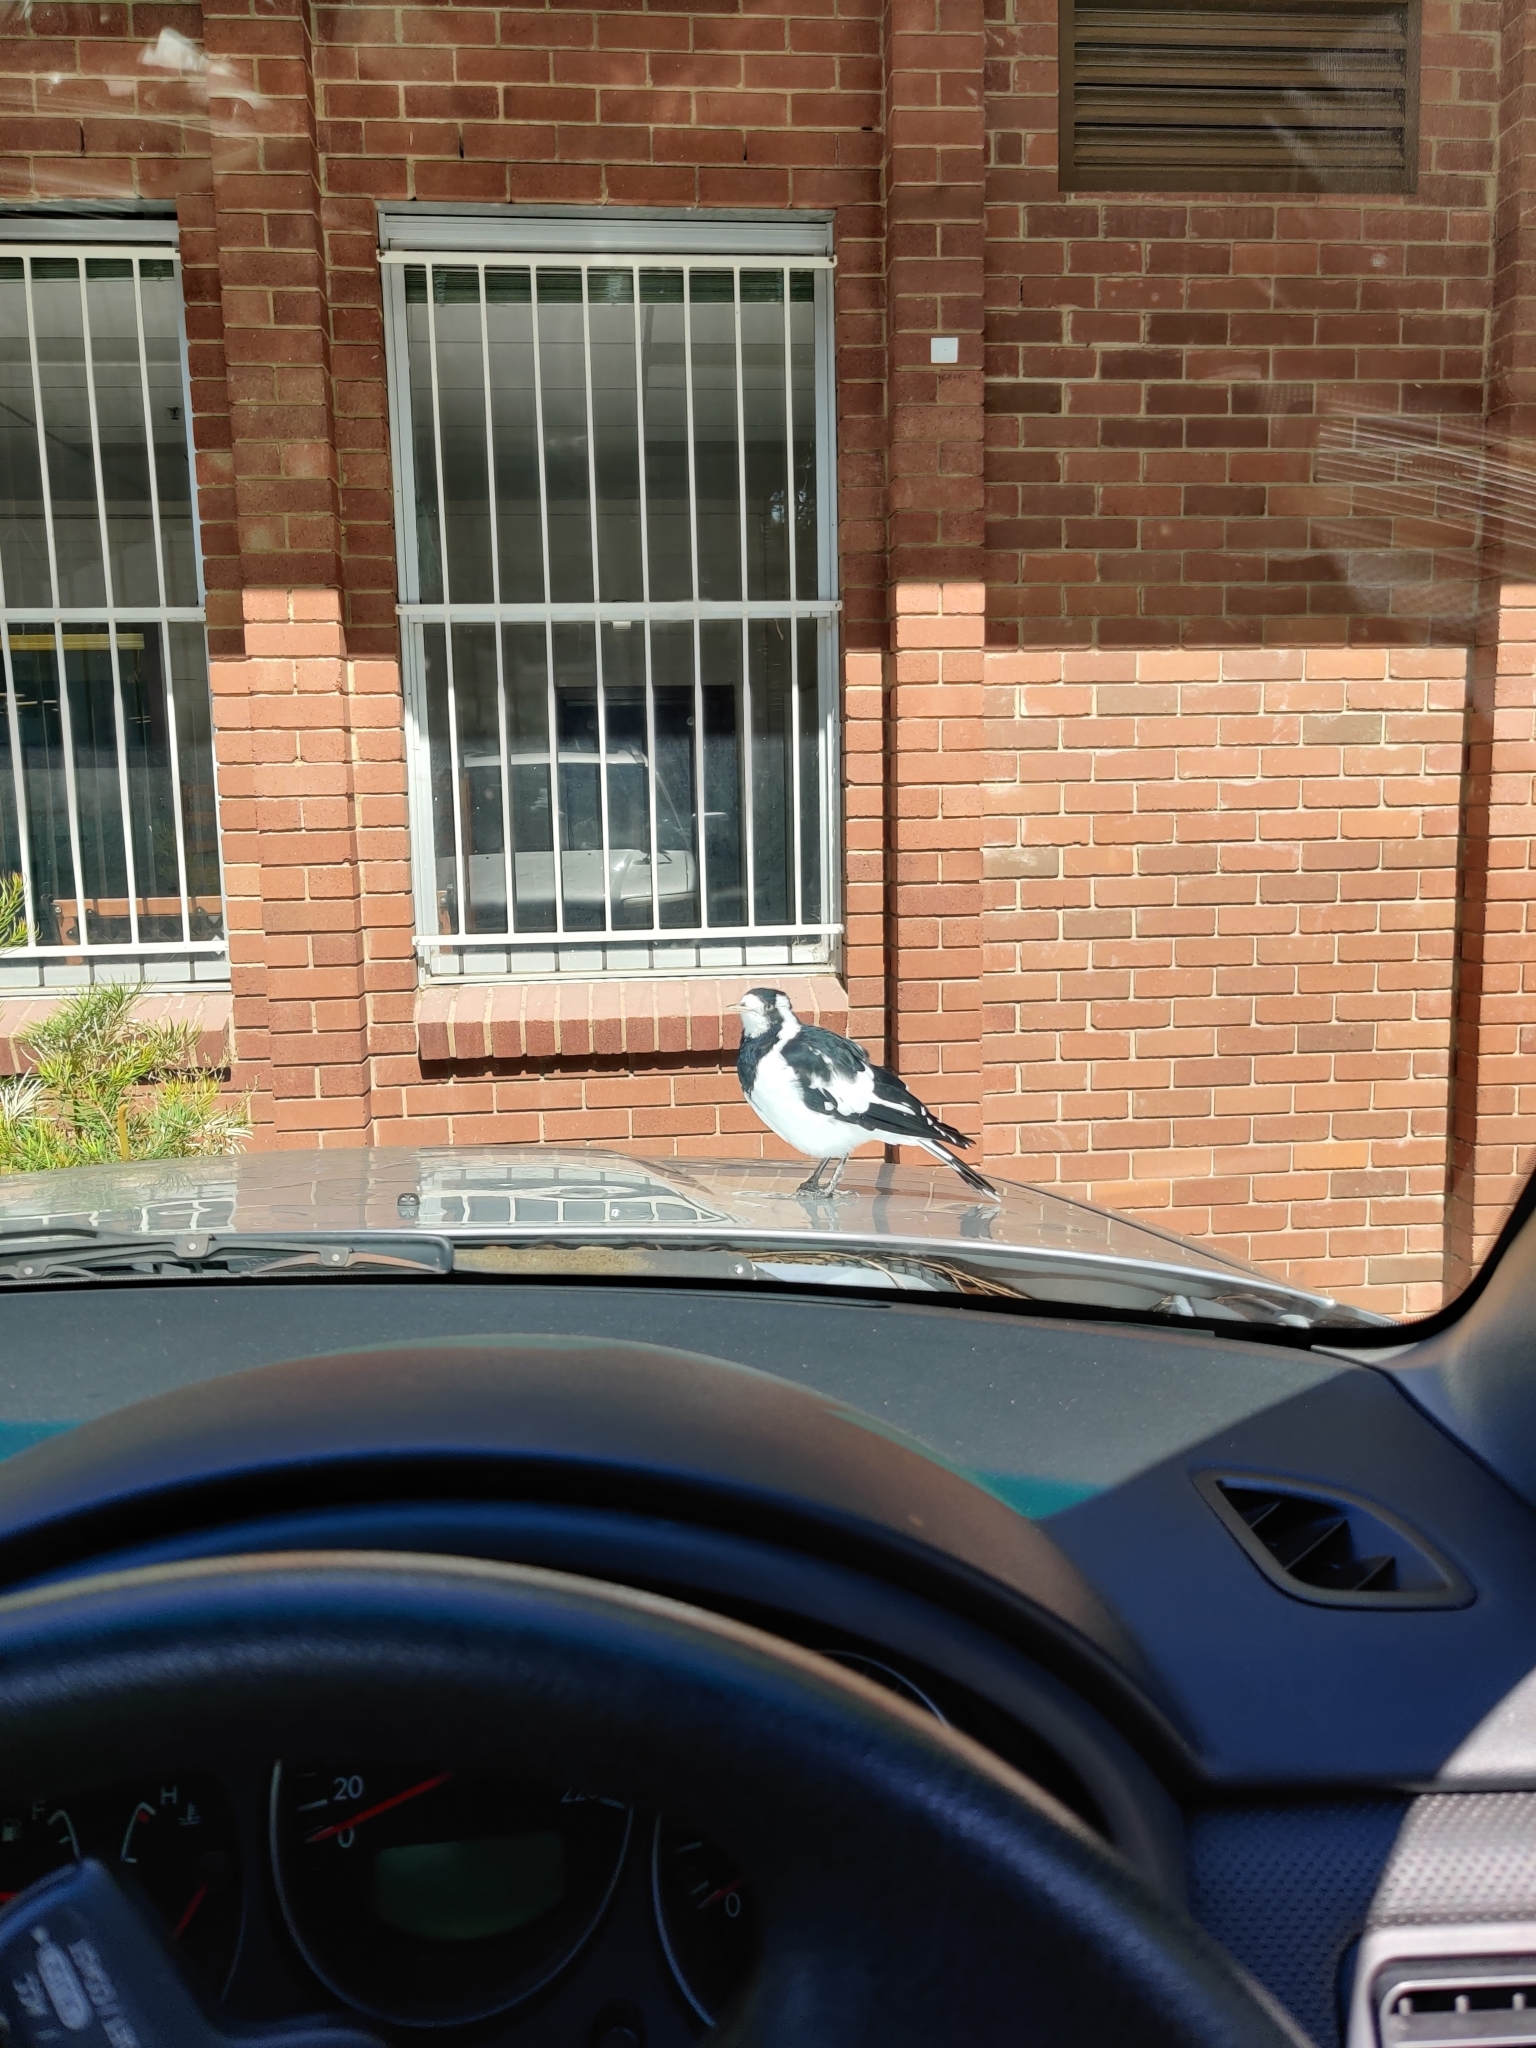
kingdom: Animalia
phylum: Chordata
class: Aves
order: Passeriformes
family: Monarchidae
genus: Grallina
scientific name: Grallina cyanoleuca
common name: Magpie-lark
